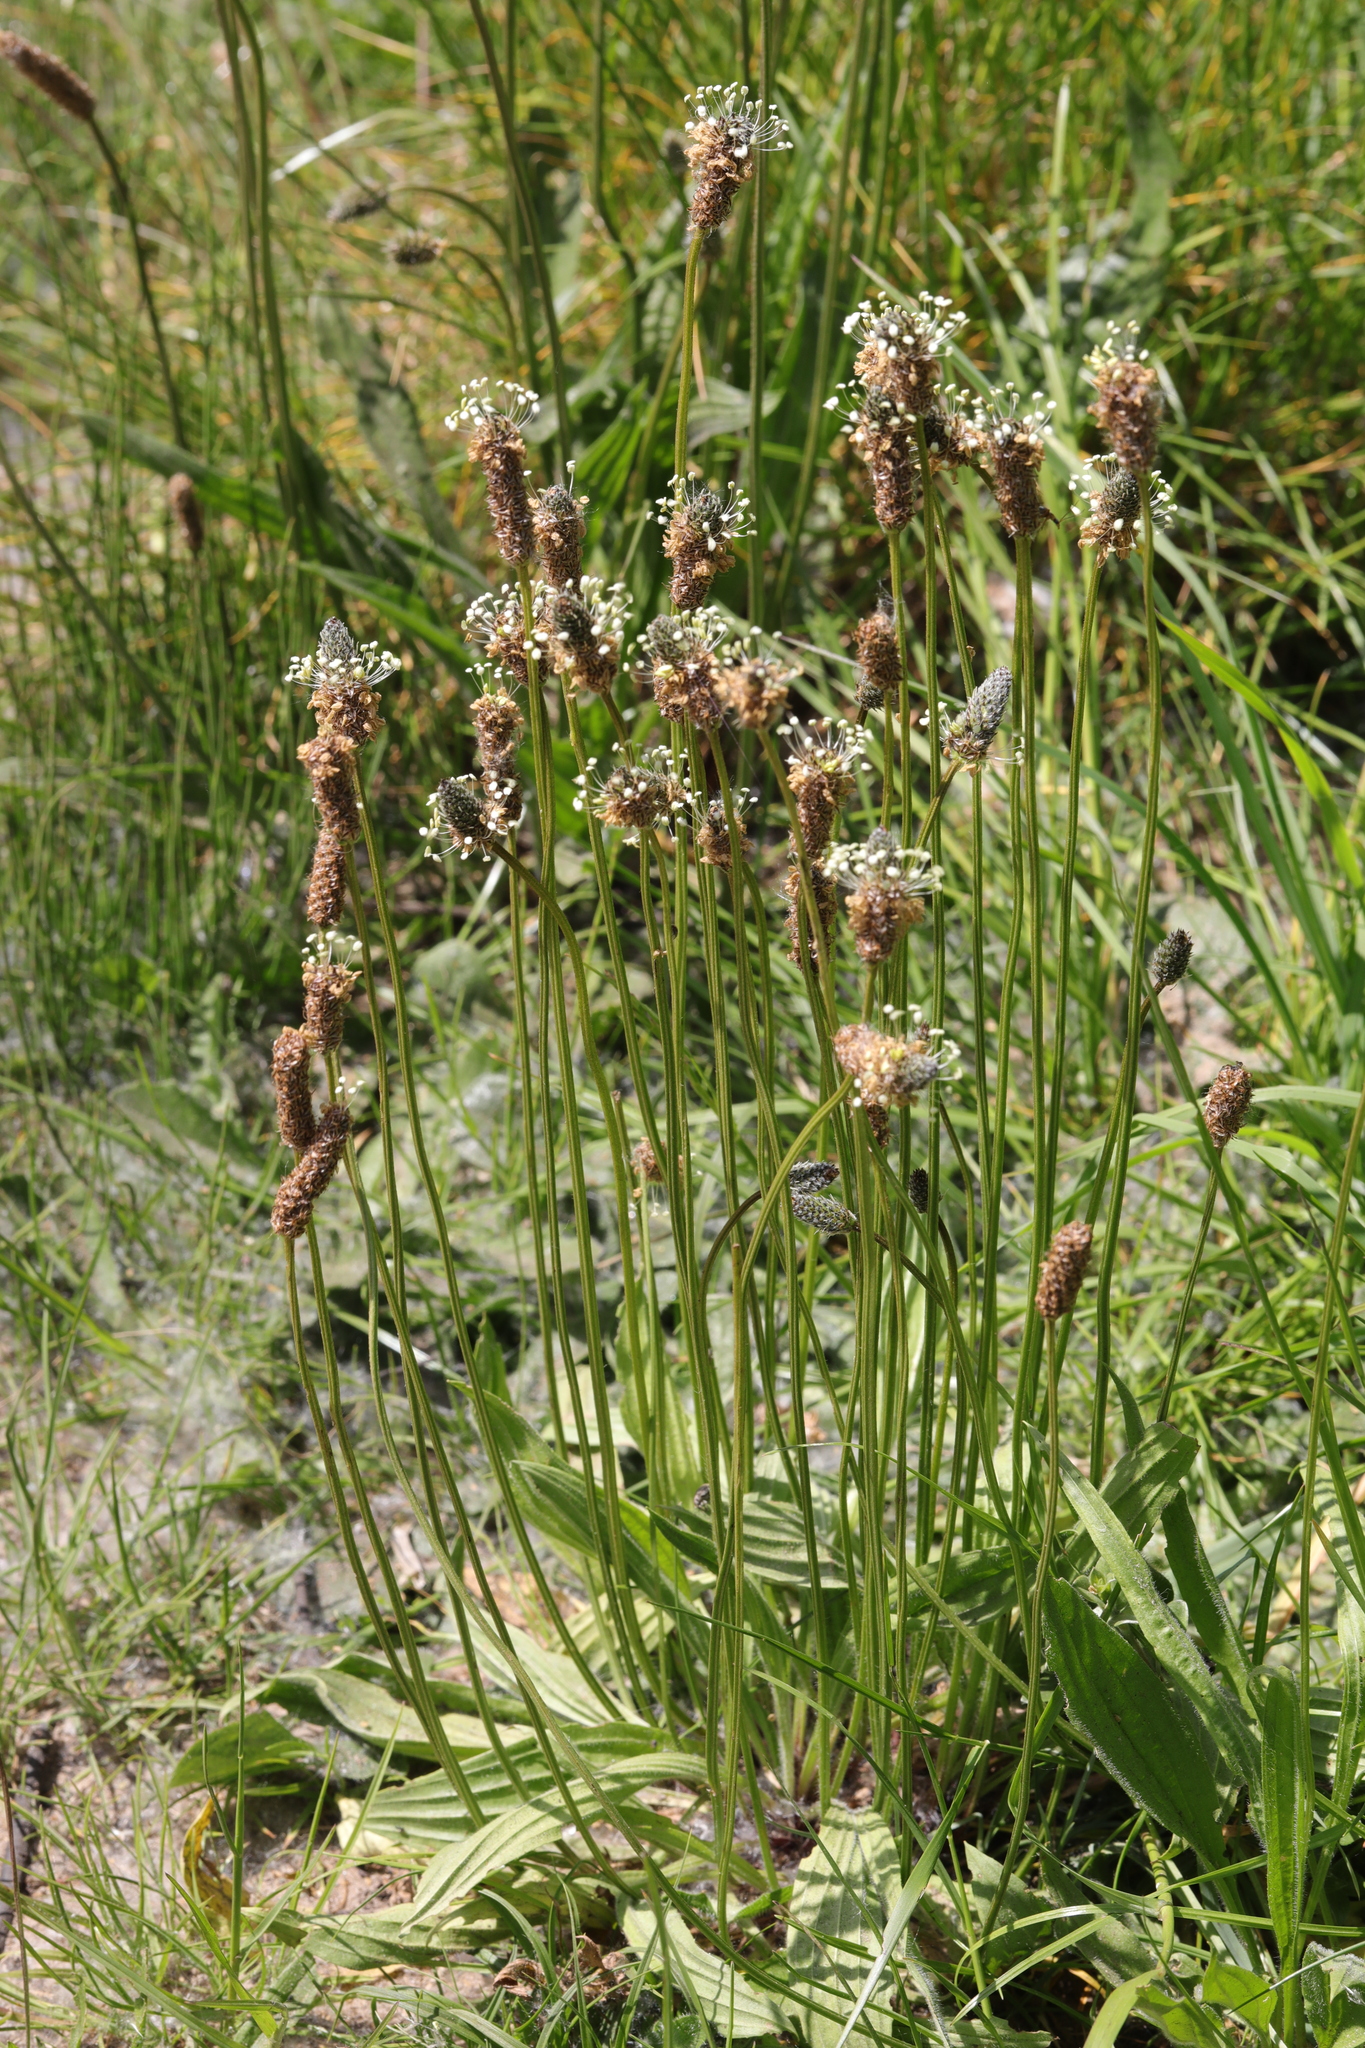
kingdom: Plantae
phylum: Tracheophyta
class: Magnoliopsida
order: Lamiales
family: Plantaginaceae
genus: Plantago
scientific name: Plantago lanceolata
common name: Ribwort plantain
